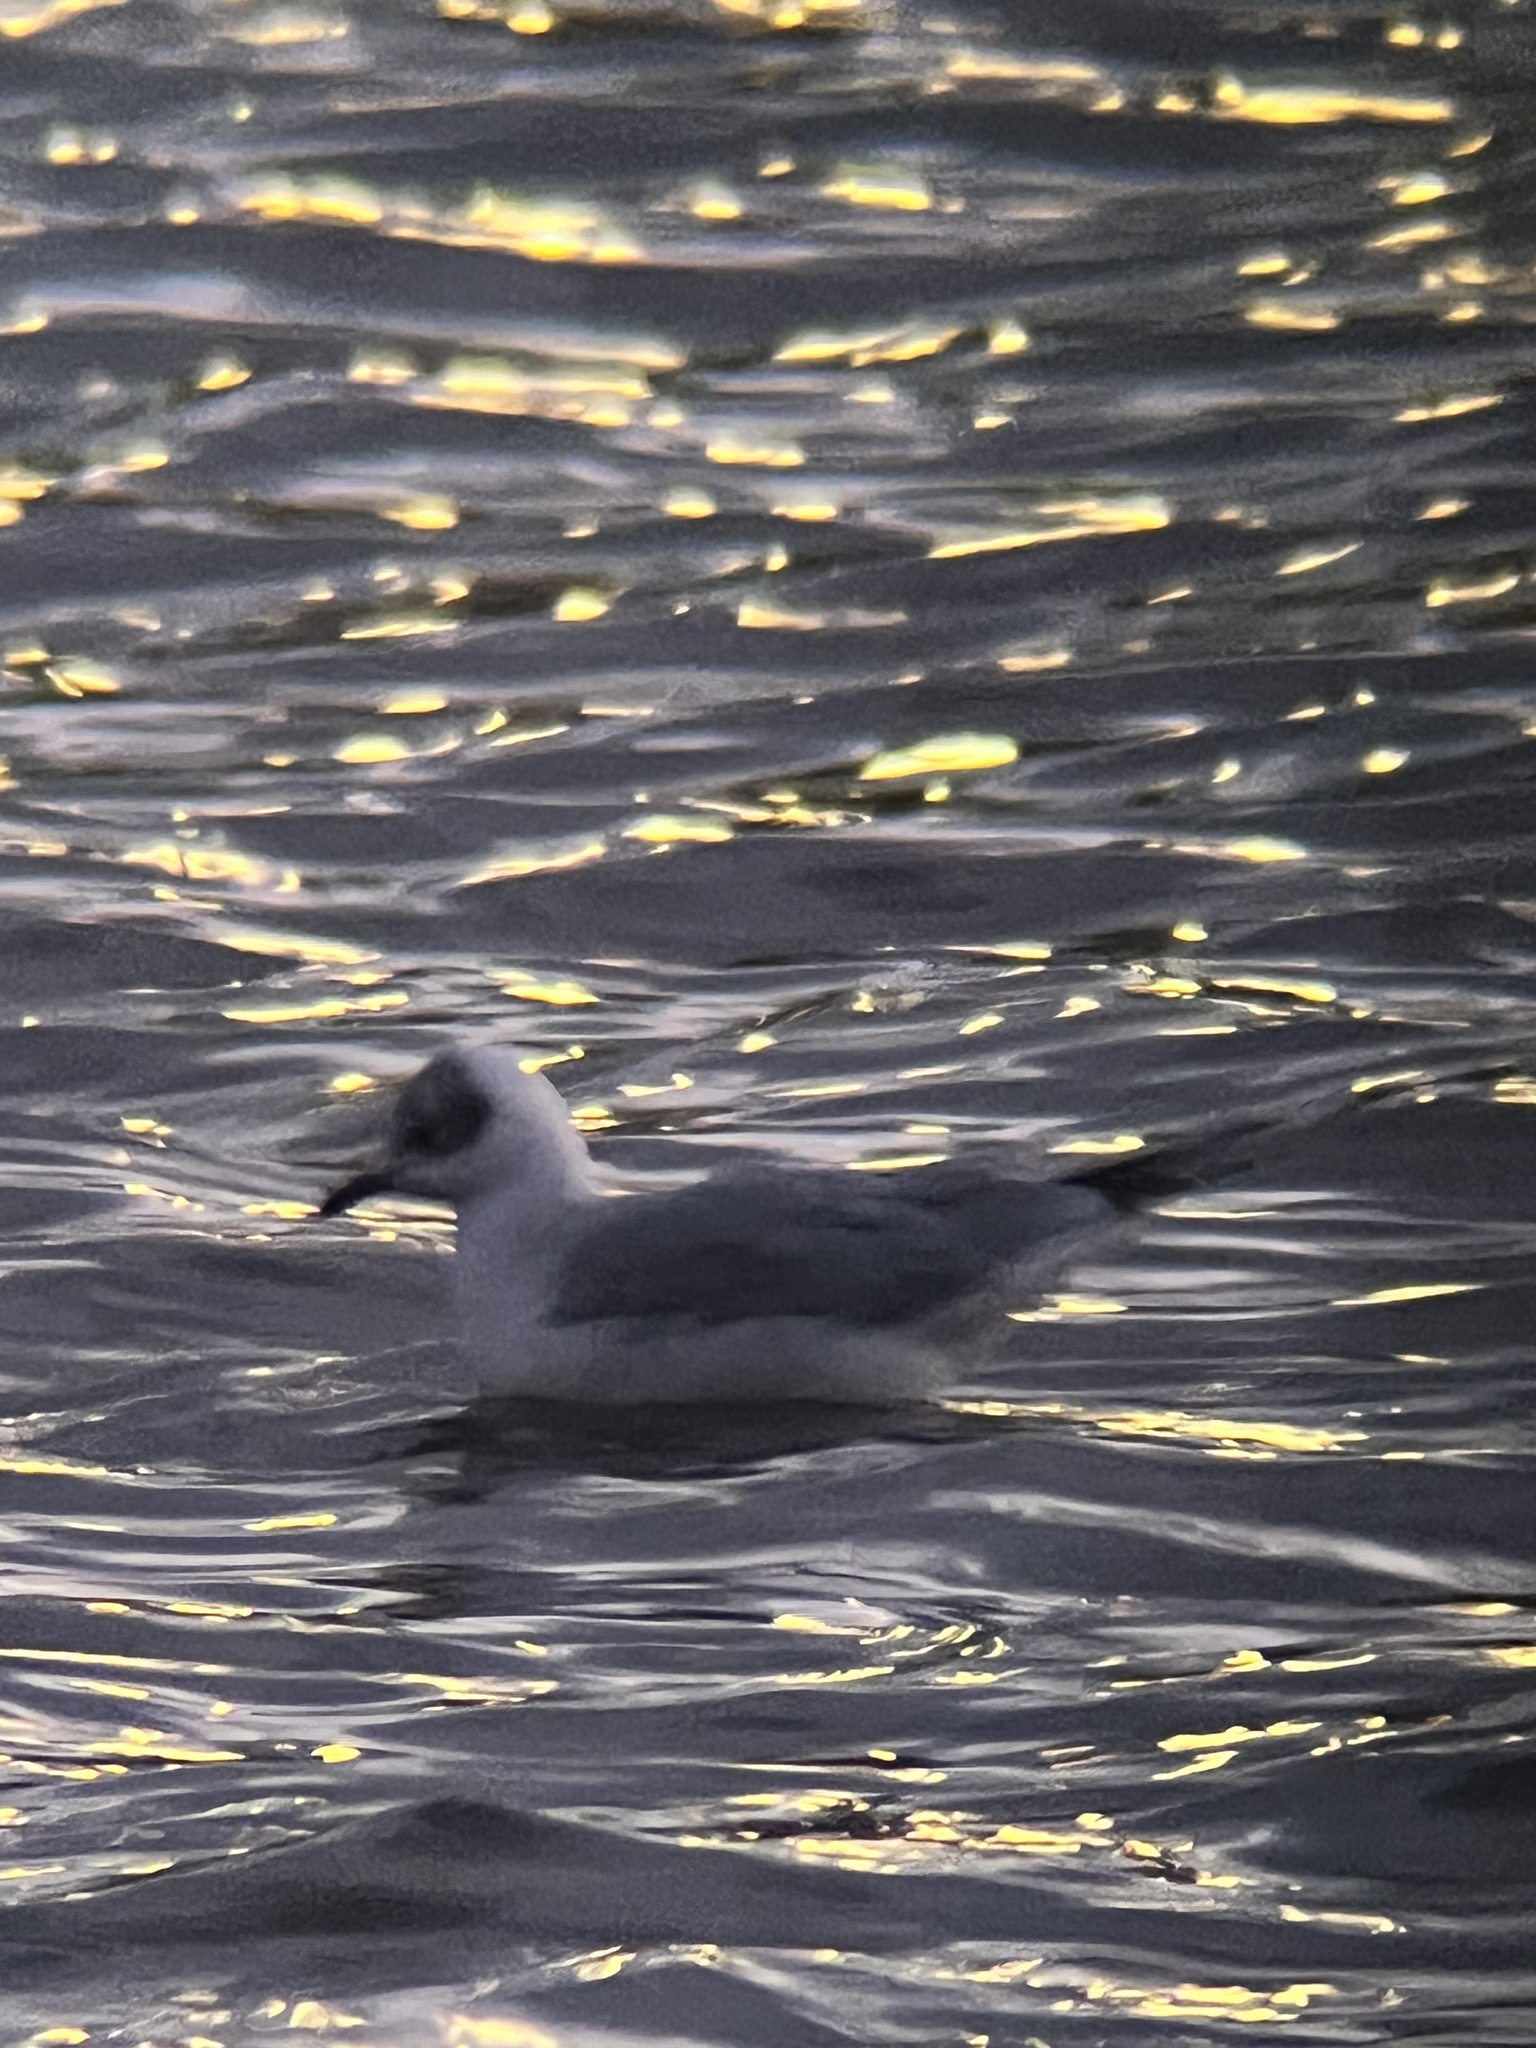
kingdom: Animalia
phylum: Chordata
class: Aves
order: Charadriiformes
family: Laridae
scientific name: Laridae
